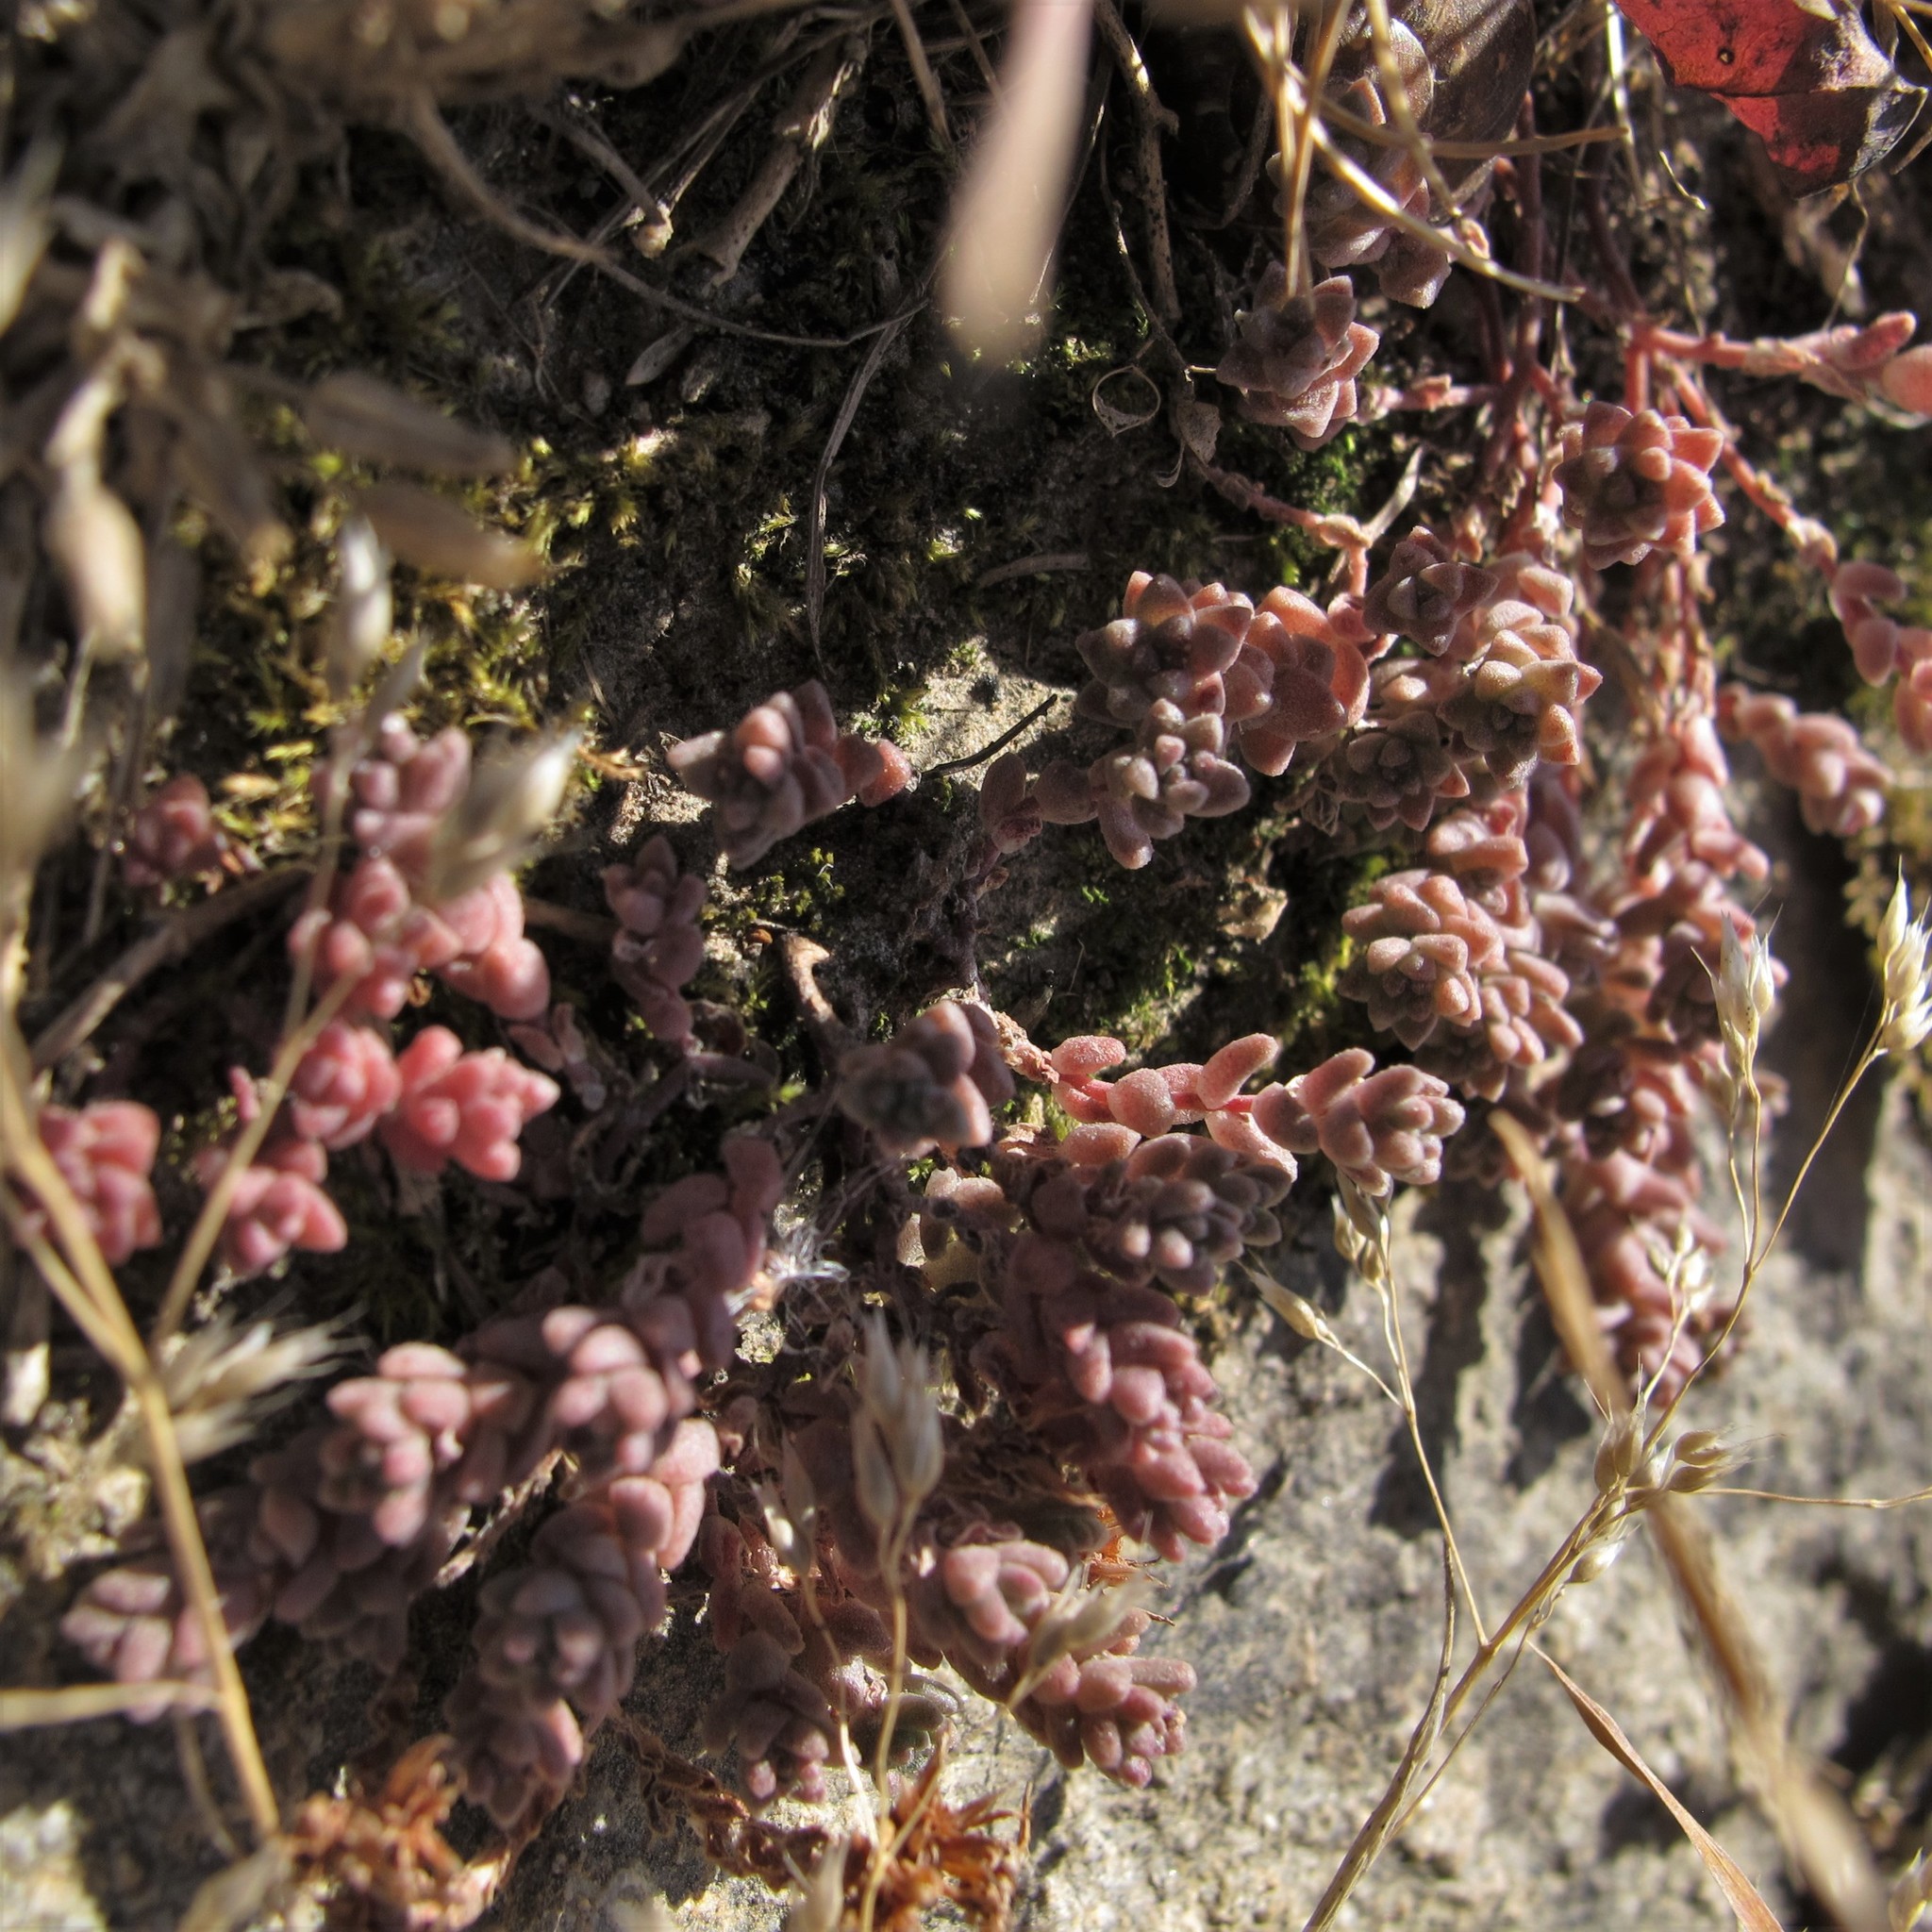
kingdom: Plantae
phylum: Tracheophyta
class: Magnoliopsida
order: Saxifragales
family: Crassulaceae
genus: Sedum
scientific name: Sedum anglicum
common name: English stonecrop
